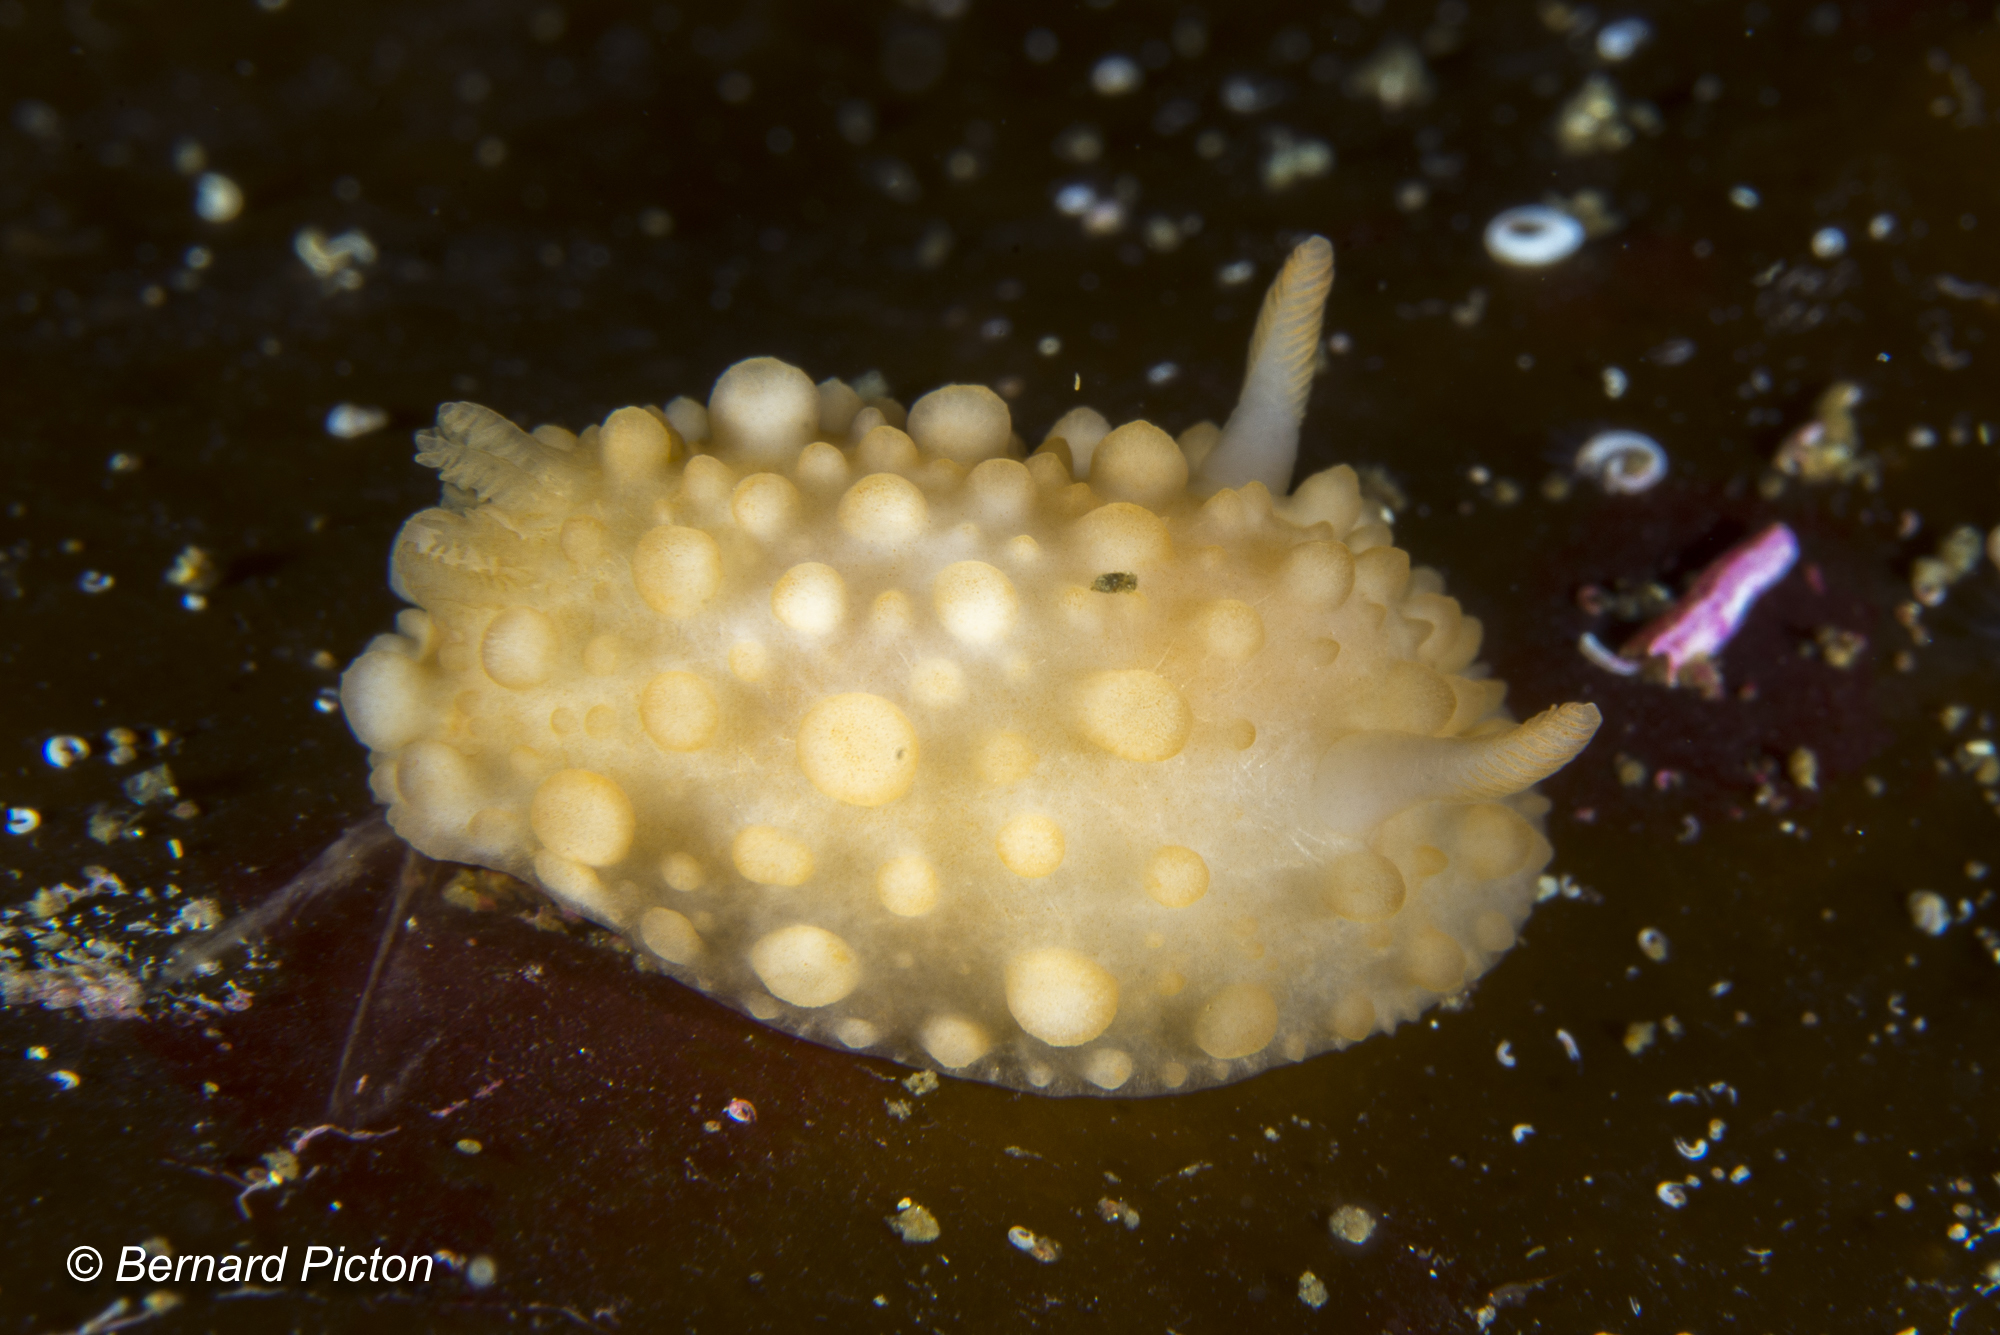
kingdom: Animalia
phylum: Mollusca
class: Gastropoda
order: Nudibranchia
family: Onchidorididae
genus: Adalaria
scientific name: Adalaria loveni
